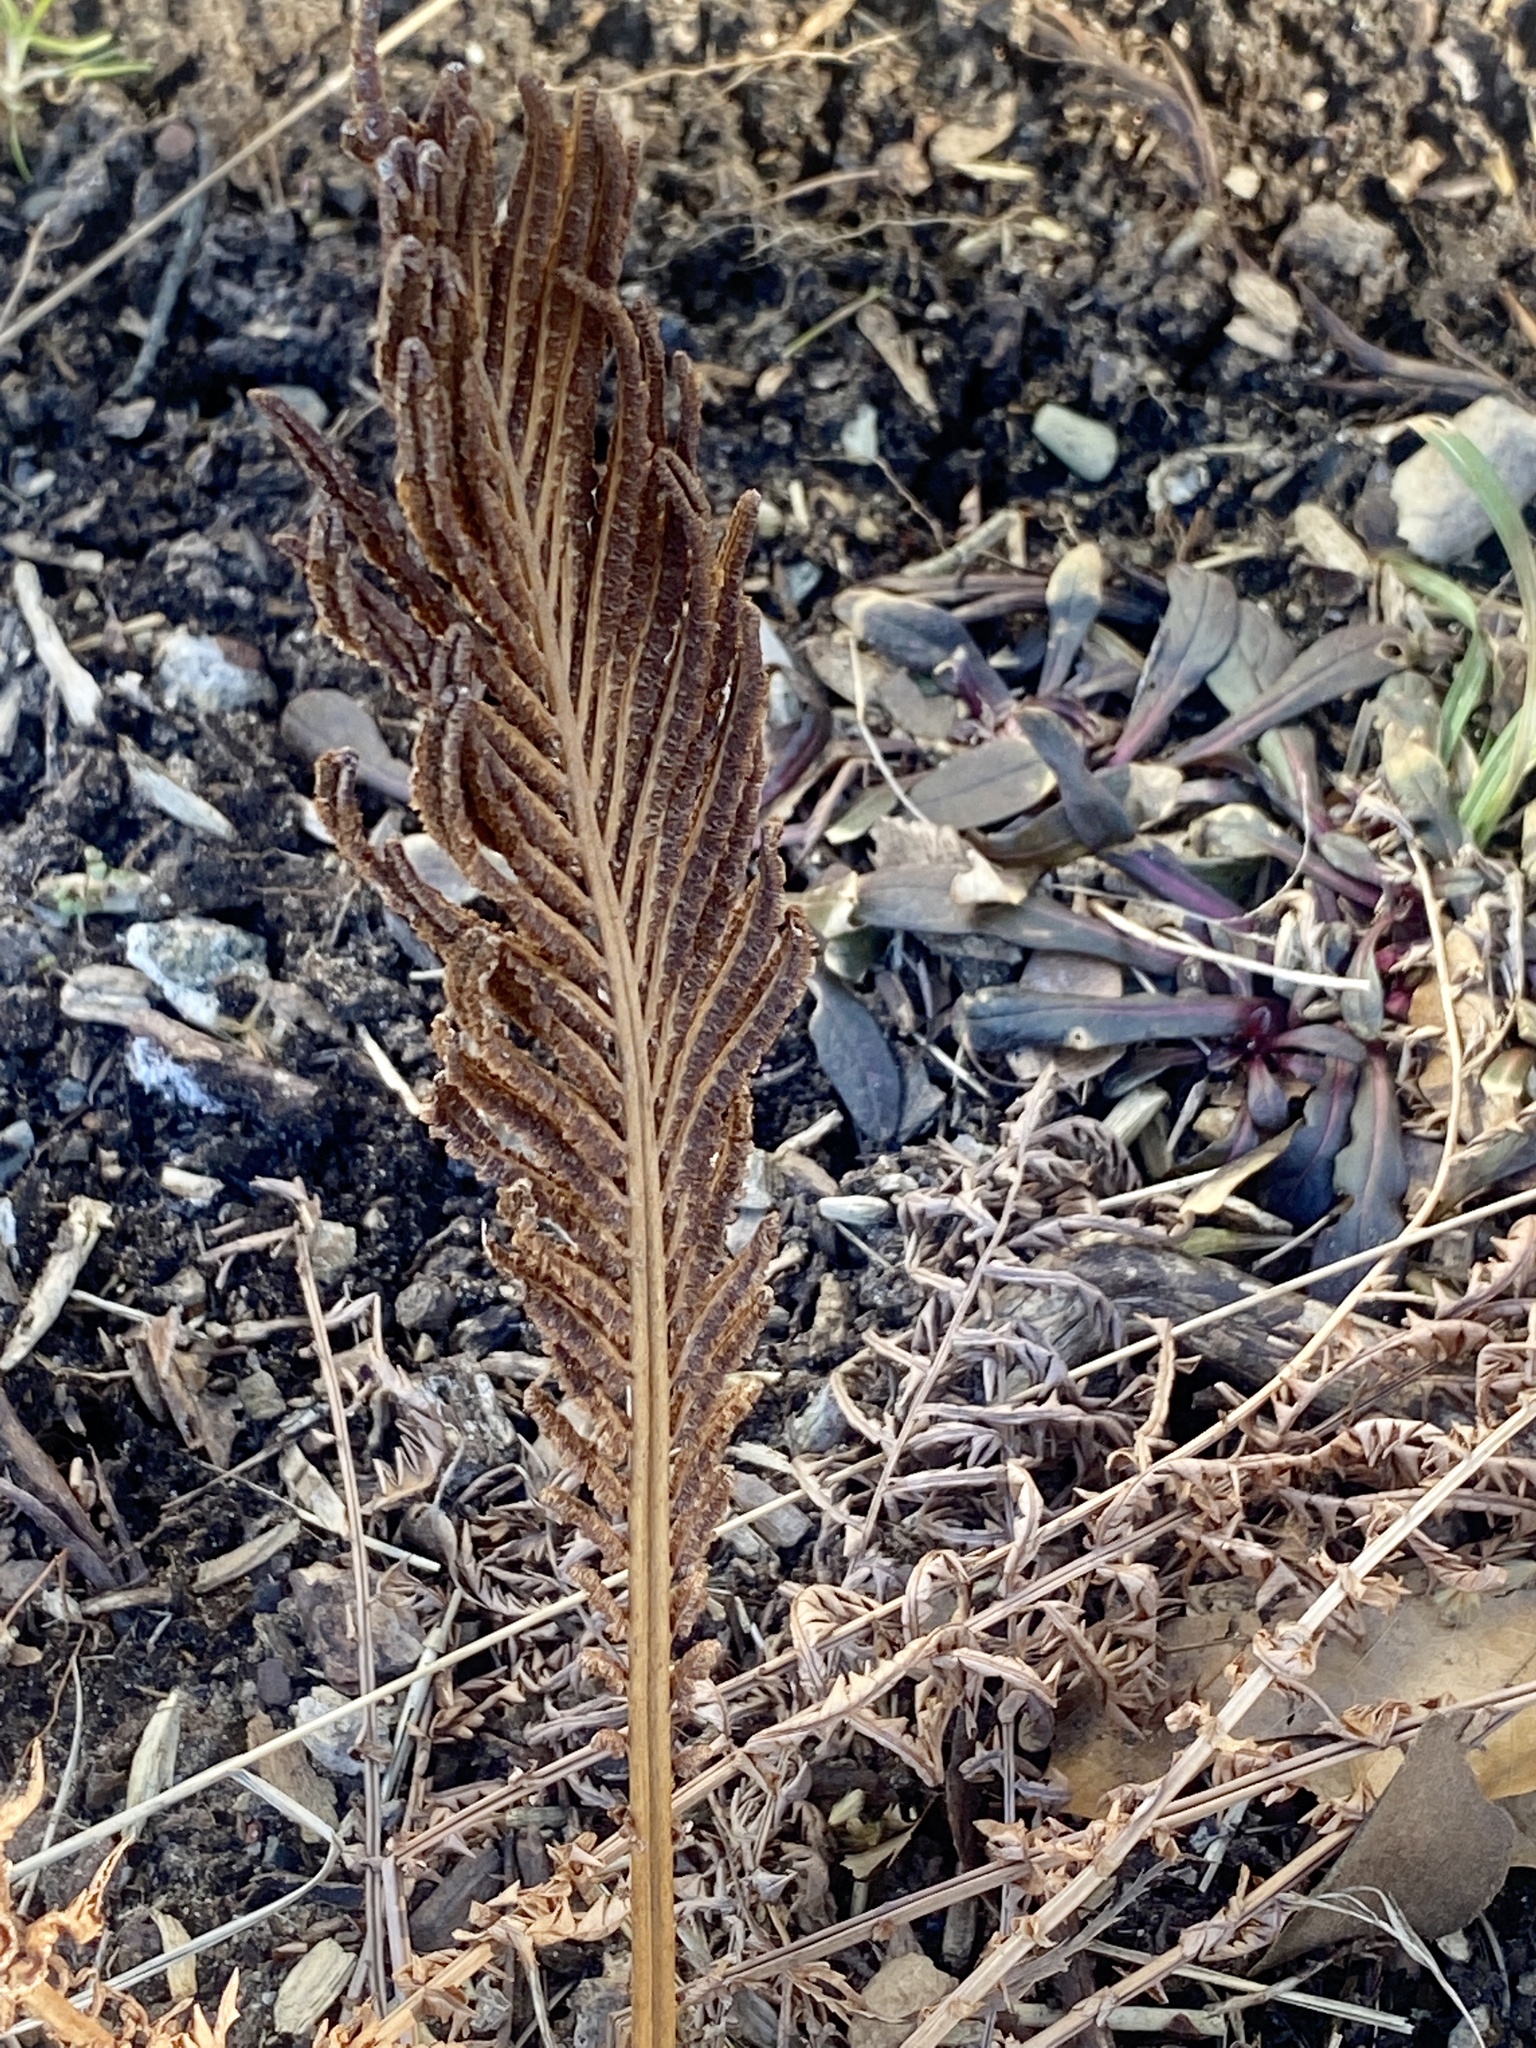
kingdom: Plantae
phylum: Tracheophyta
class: Polypodiopsida
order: Polypodiales
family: Onocleaceae
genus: Matteuccia
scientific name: Matteuccia struthiopteris
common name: Ostrich fern
